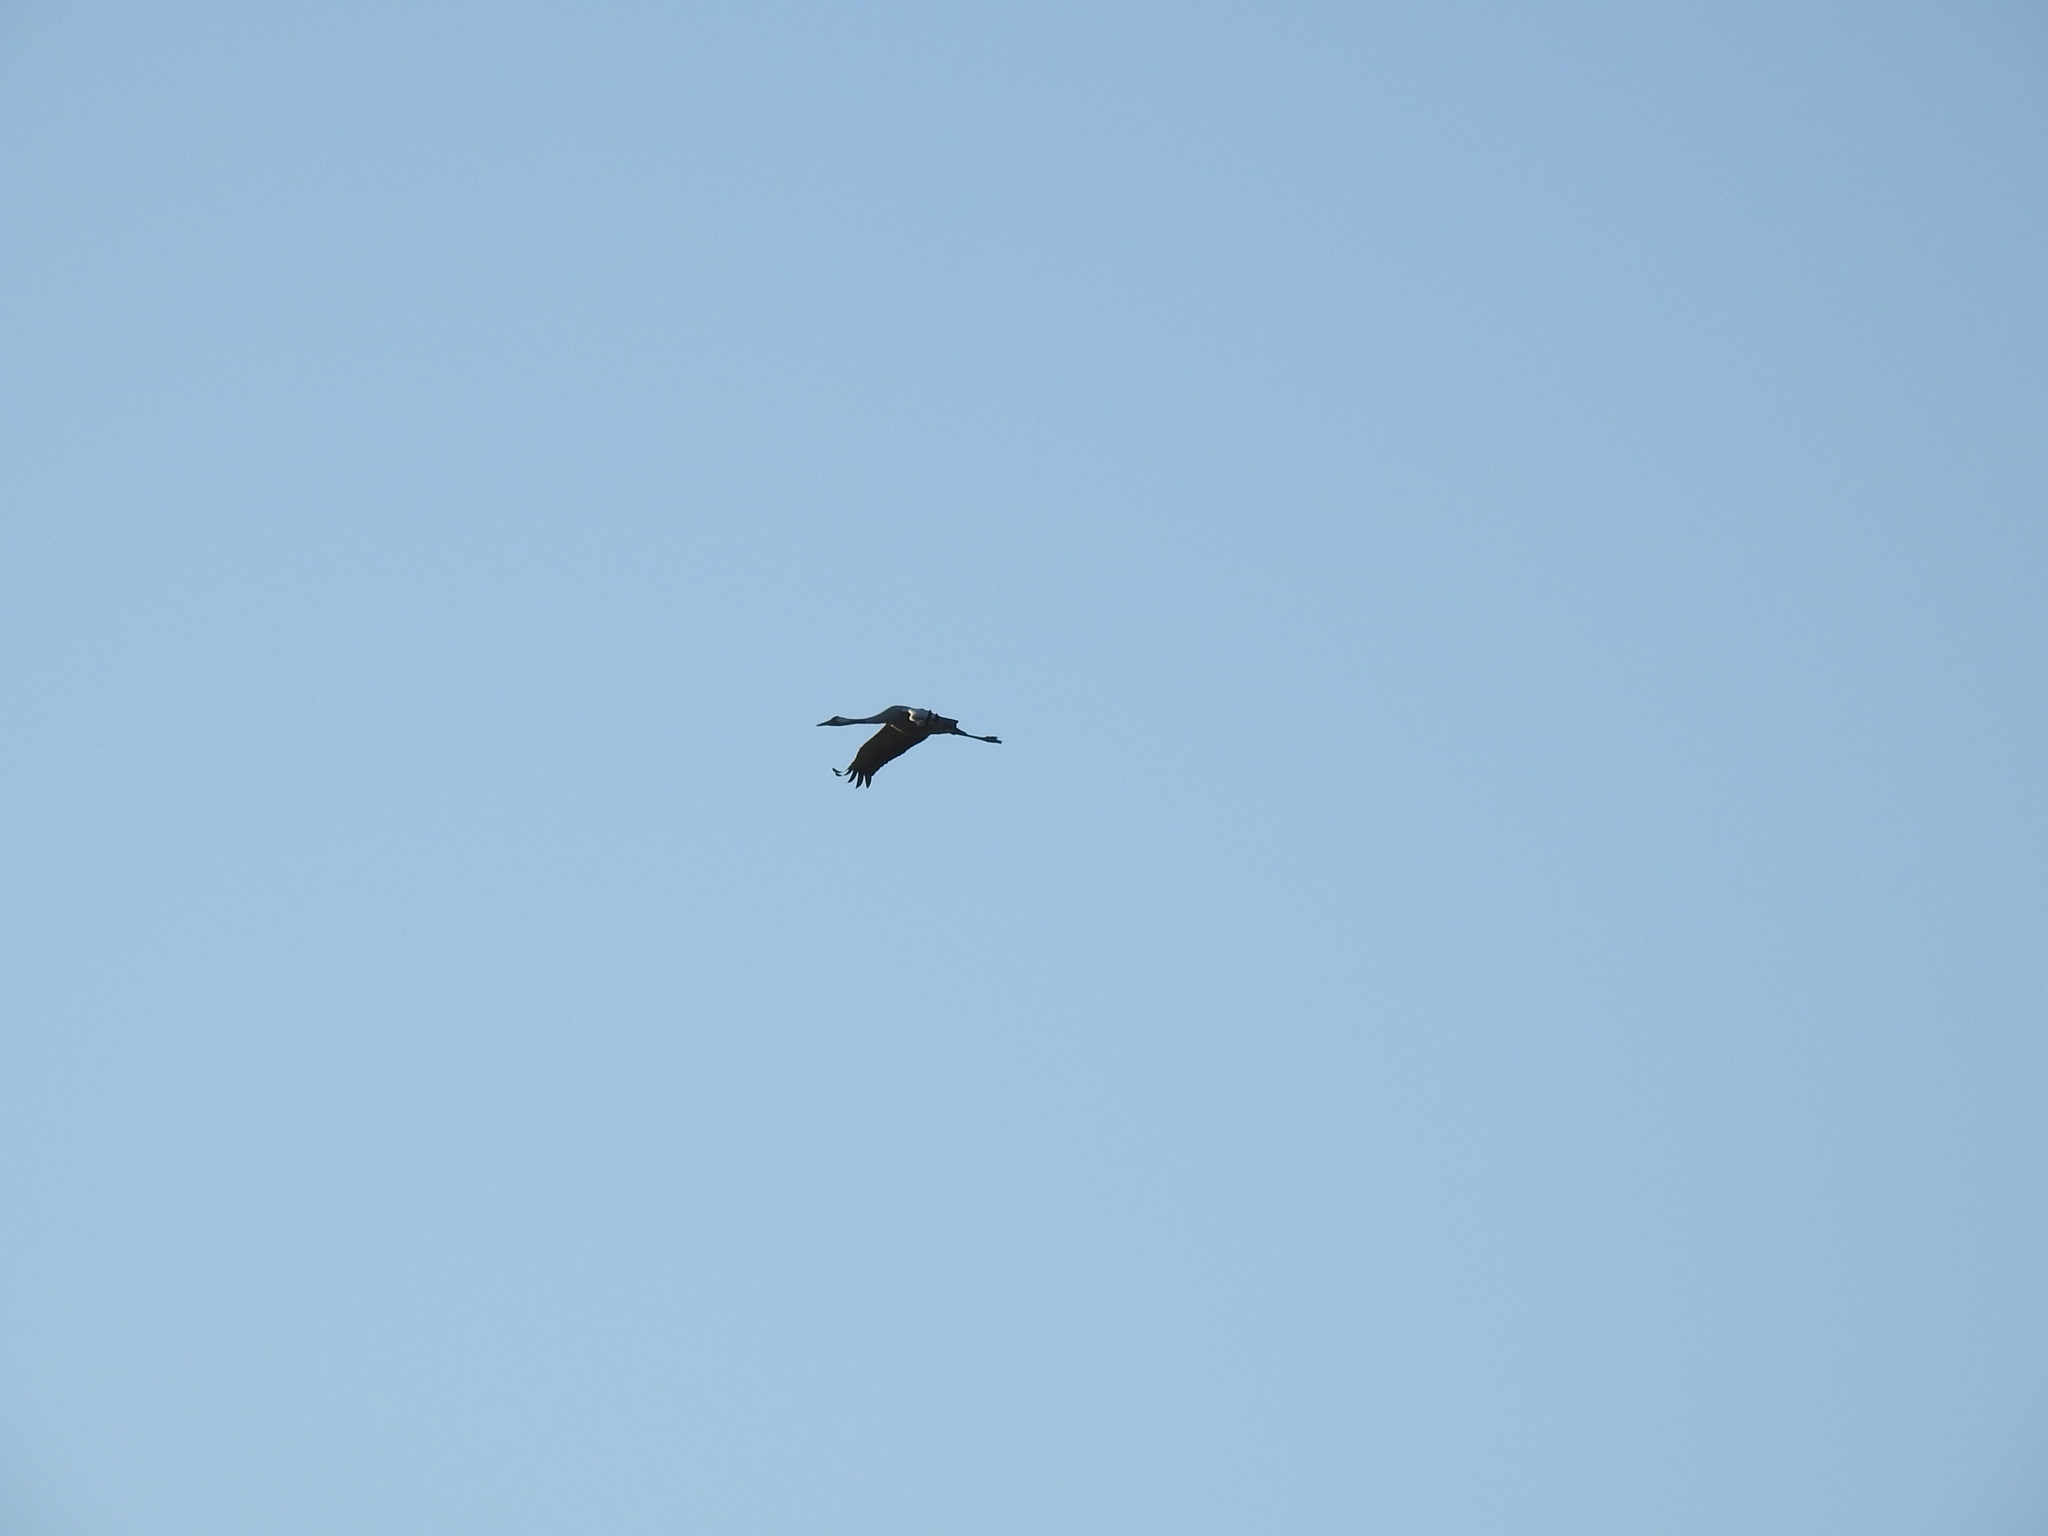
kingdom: Animalia
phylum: Chordata
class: Aves
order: Gruiformes
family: Gruidae
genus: Grus
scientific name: Grus grus
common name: Common crane
